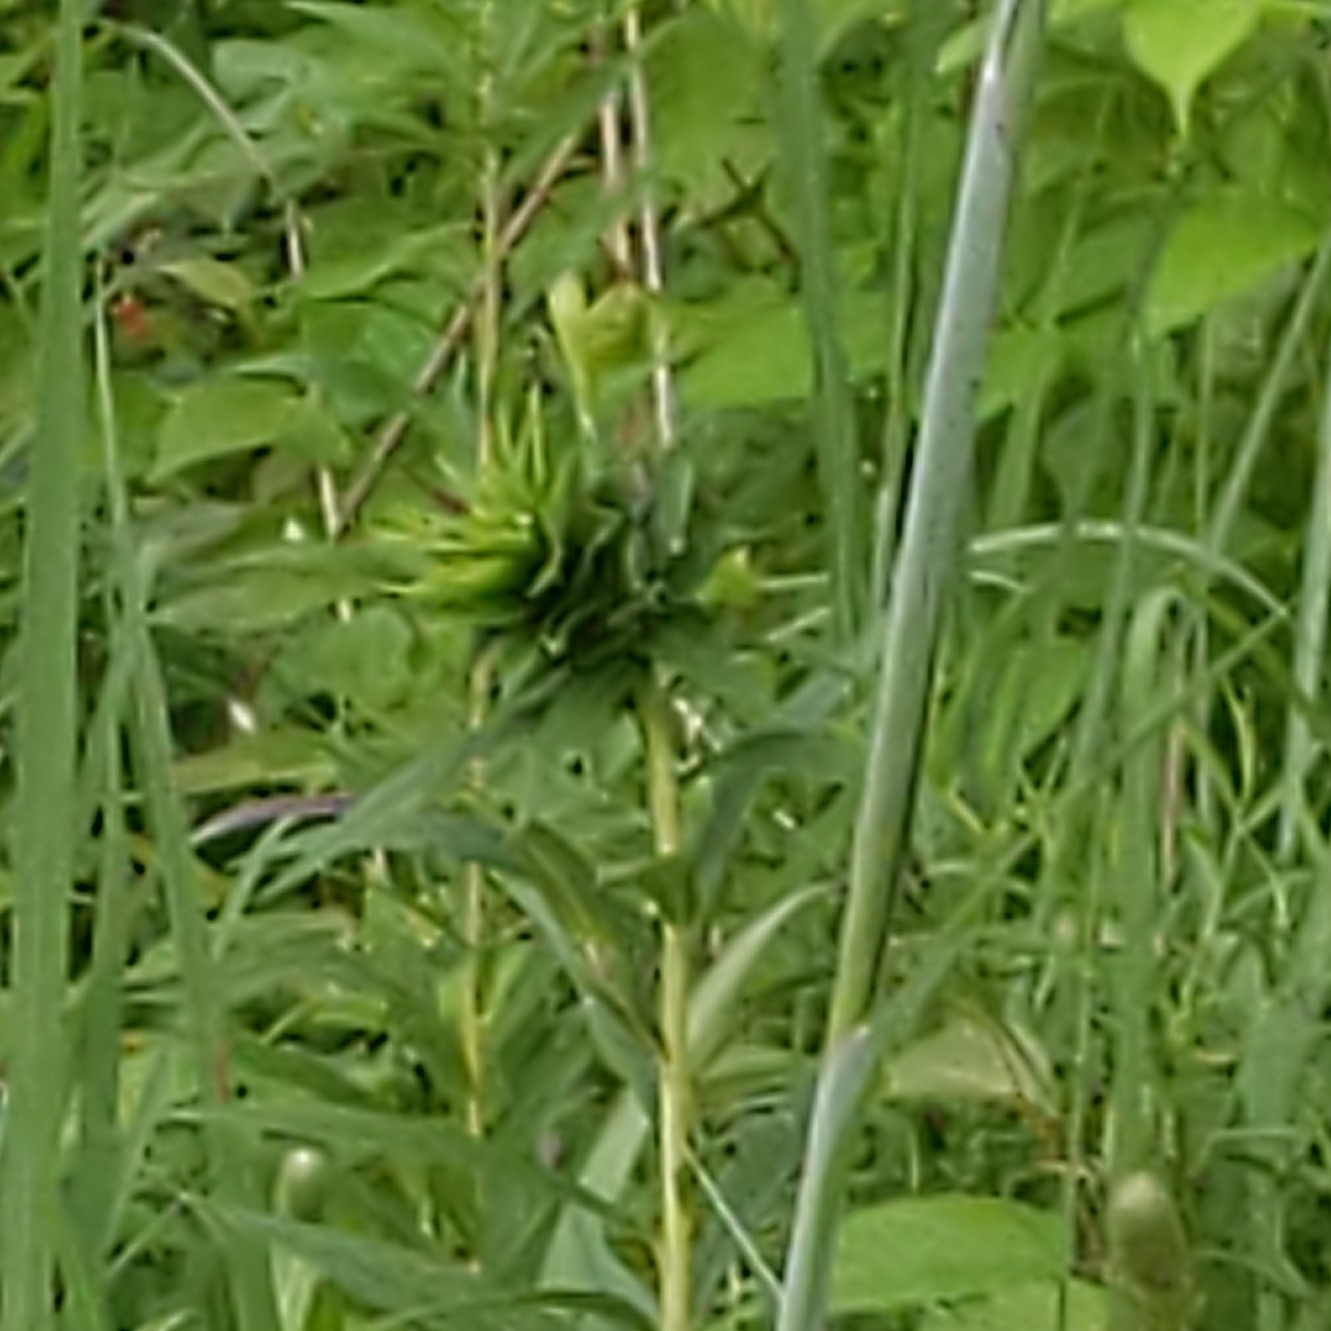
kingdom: Animalia
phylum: Arthropoda
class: Insecta
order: Diptera
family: Cecidomyiidae
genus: Rhopalomyia
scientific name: Rhopalomyia solidaginis
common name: Goldenrod bunch gall midge
